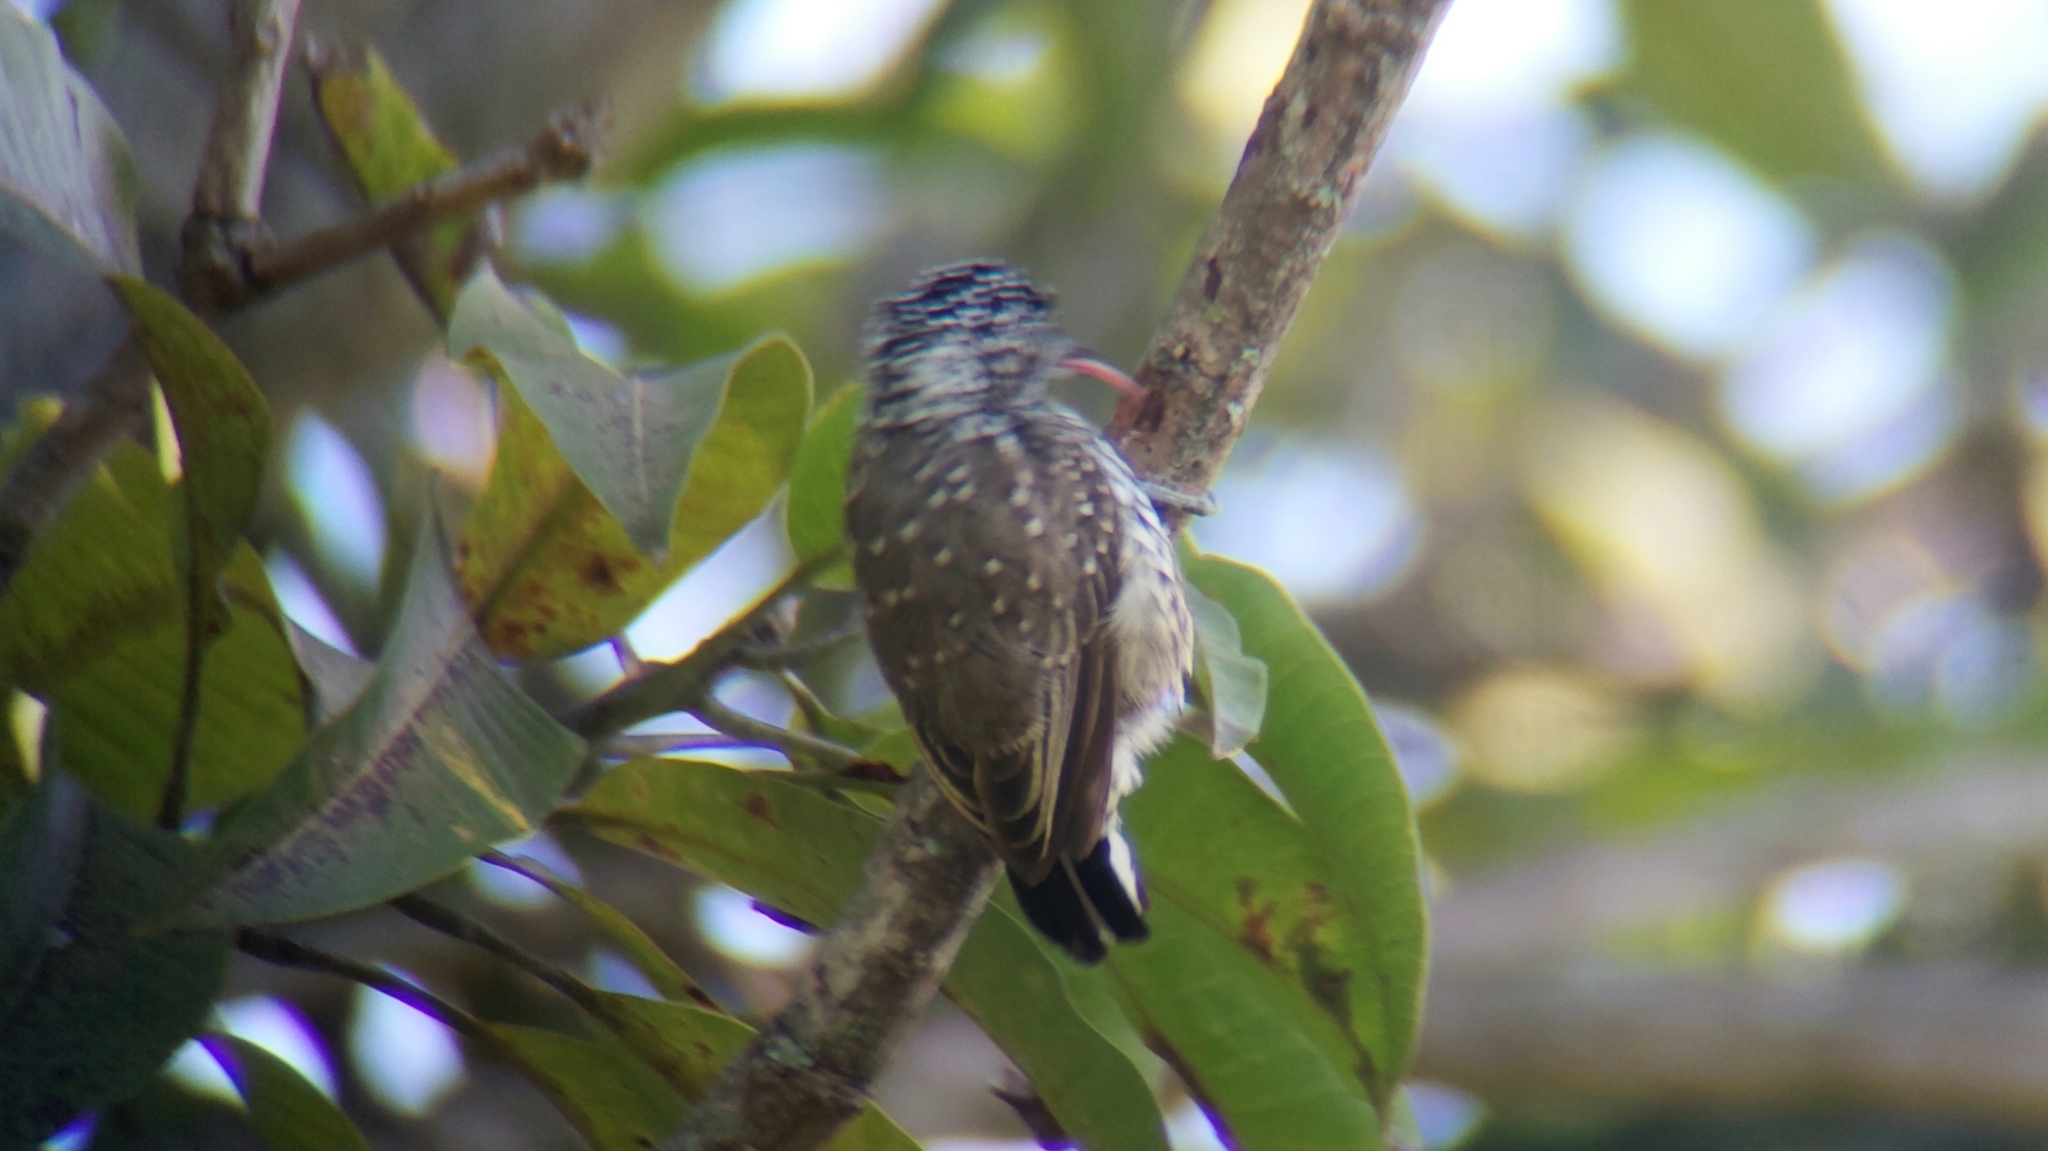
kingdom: Animalia
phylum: Chordata
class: Aves
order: Piciformes
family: Picidae
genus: Picumnus
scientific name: Picumnus albosquamatus
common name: White-wedged piculet
